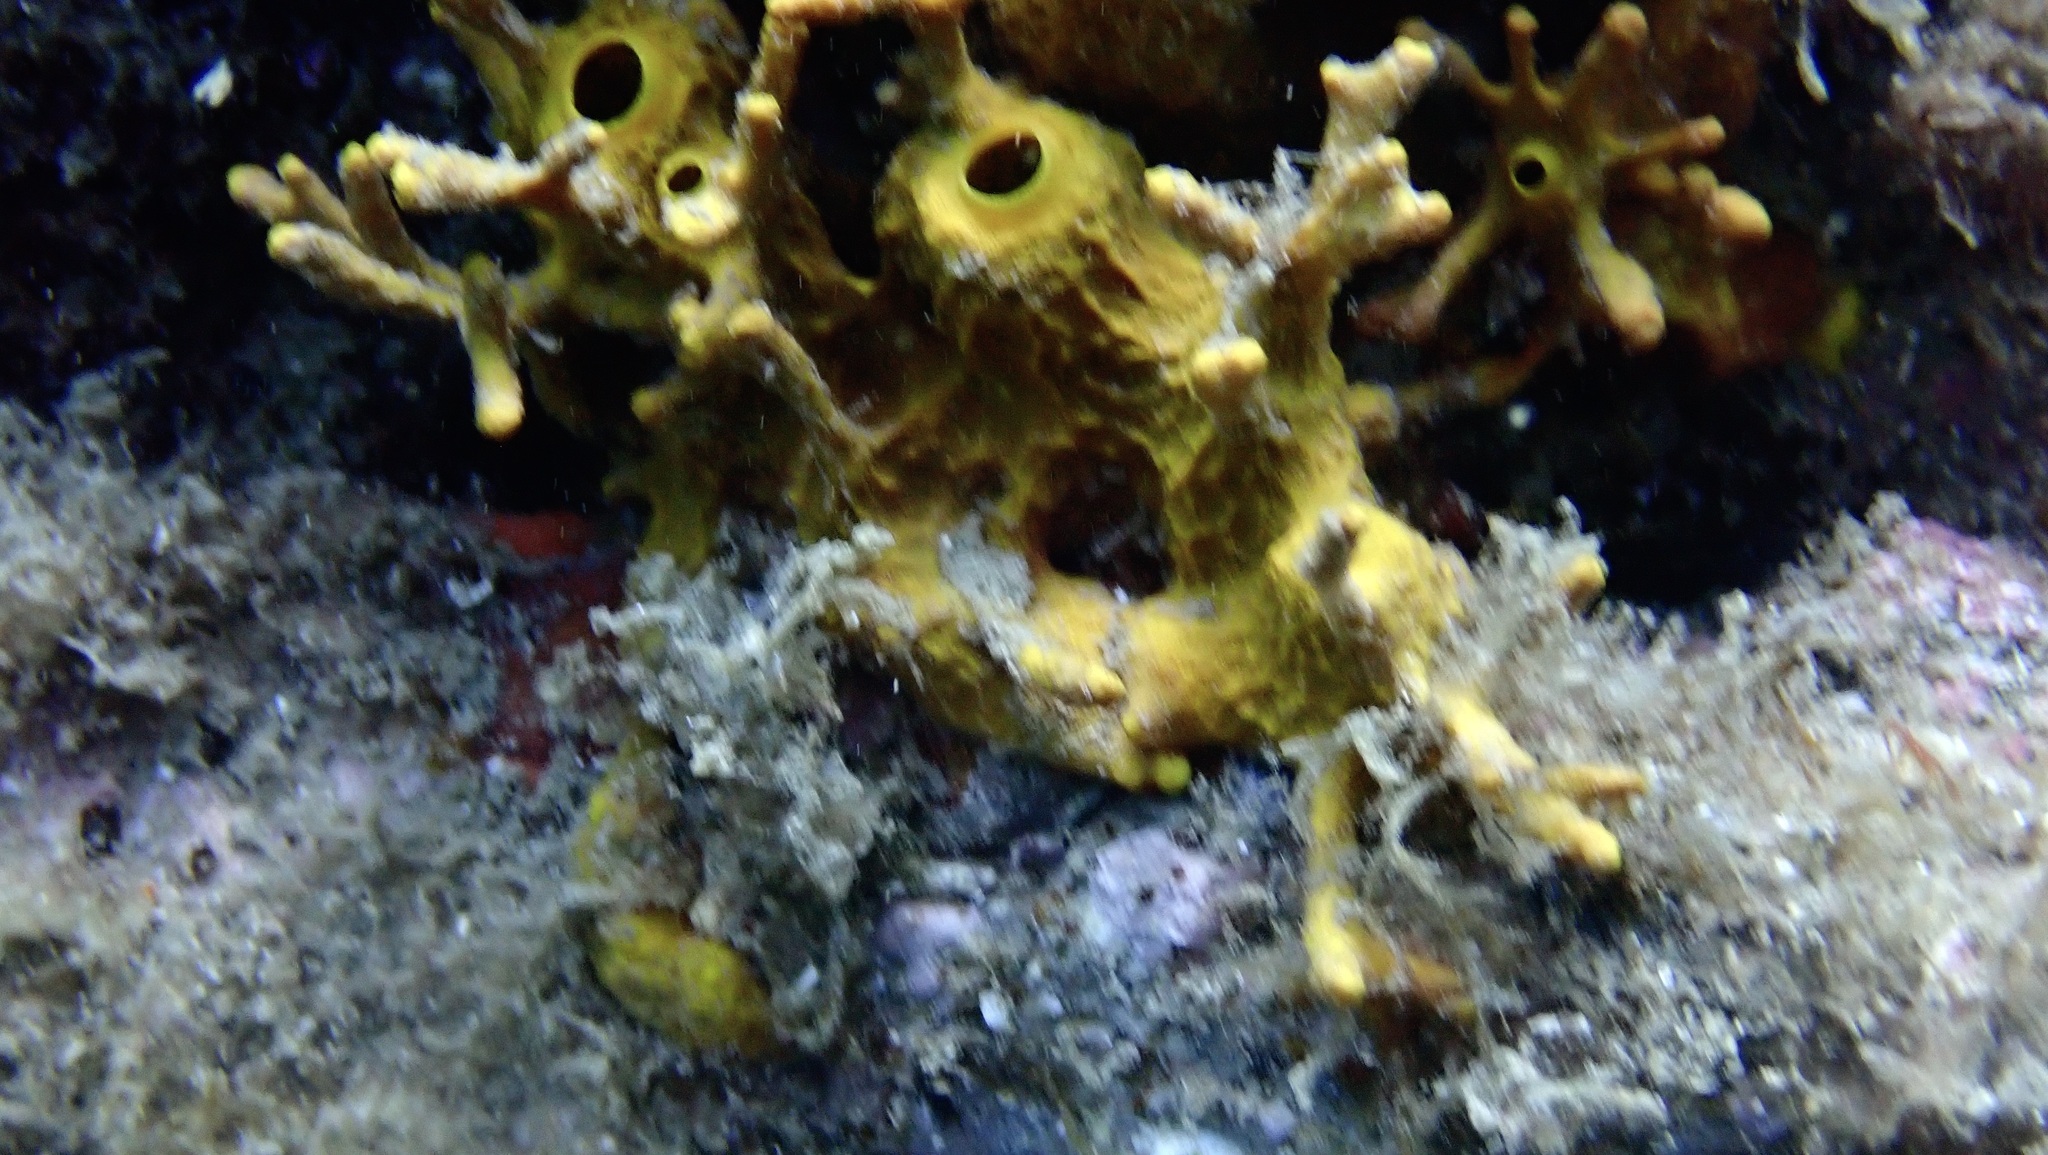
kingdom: Animalia
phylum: Porifera
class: Demospongiae
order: Verongiida
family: Aplysinidae
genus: Aplysina
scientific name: Aplysina aerophoba
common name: Aureate sponge
